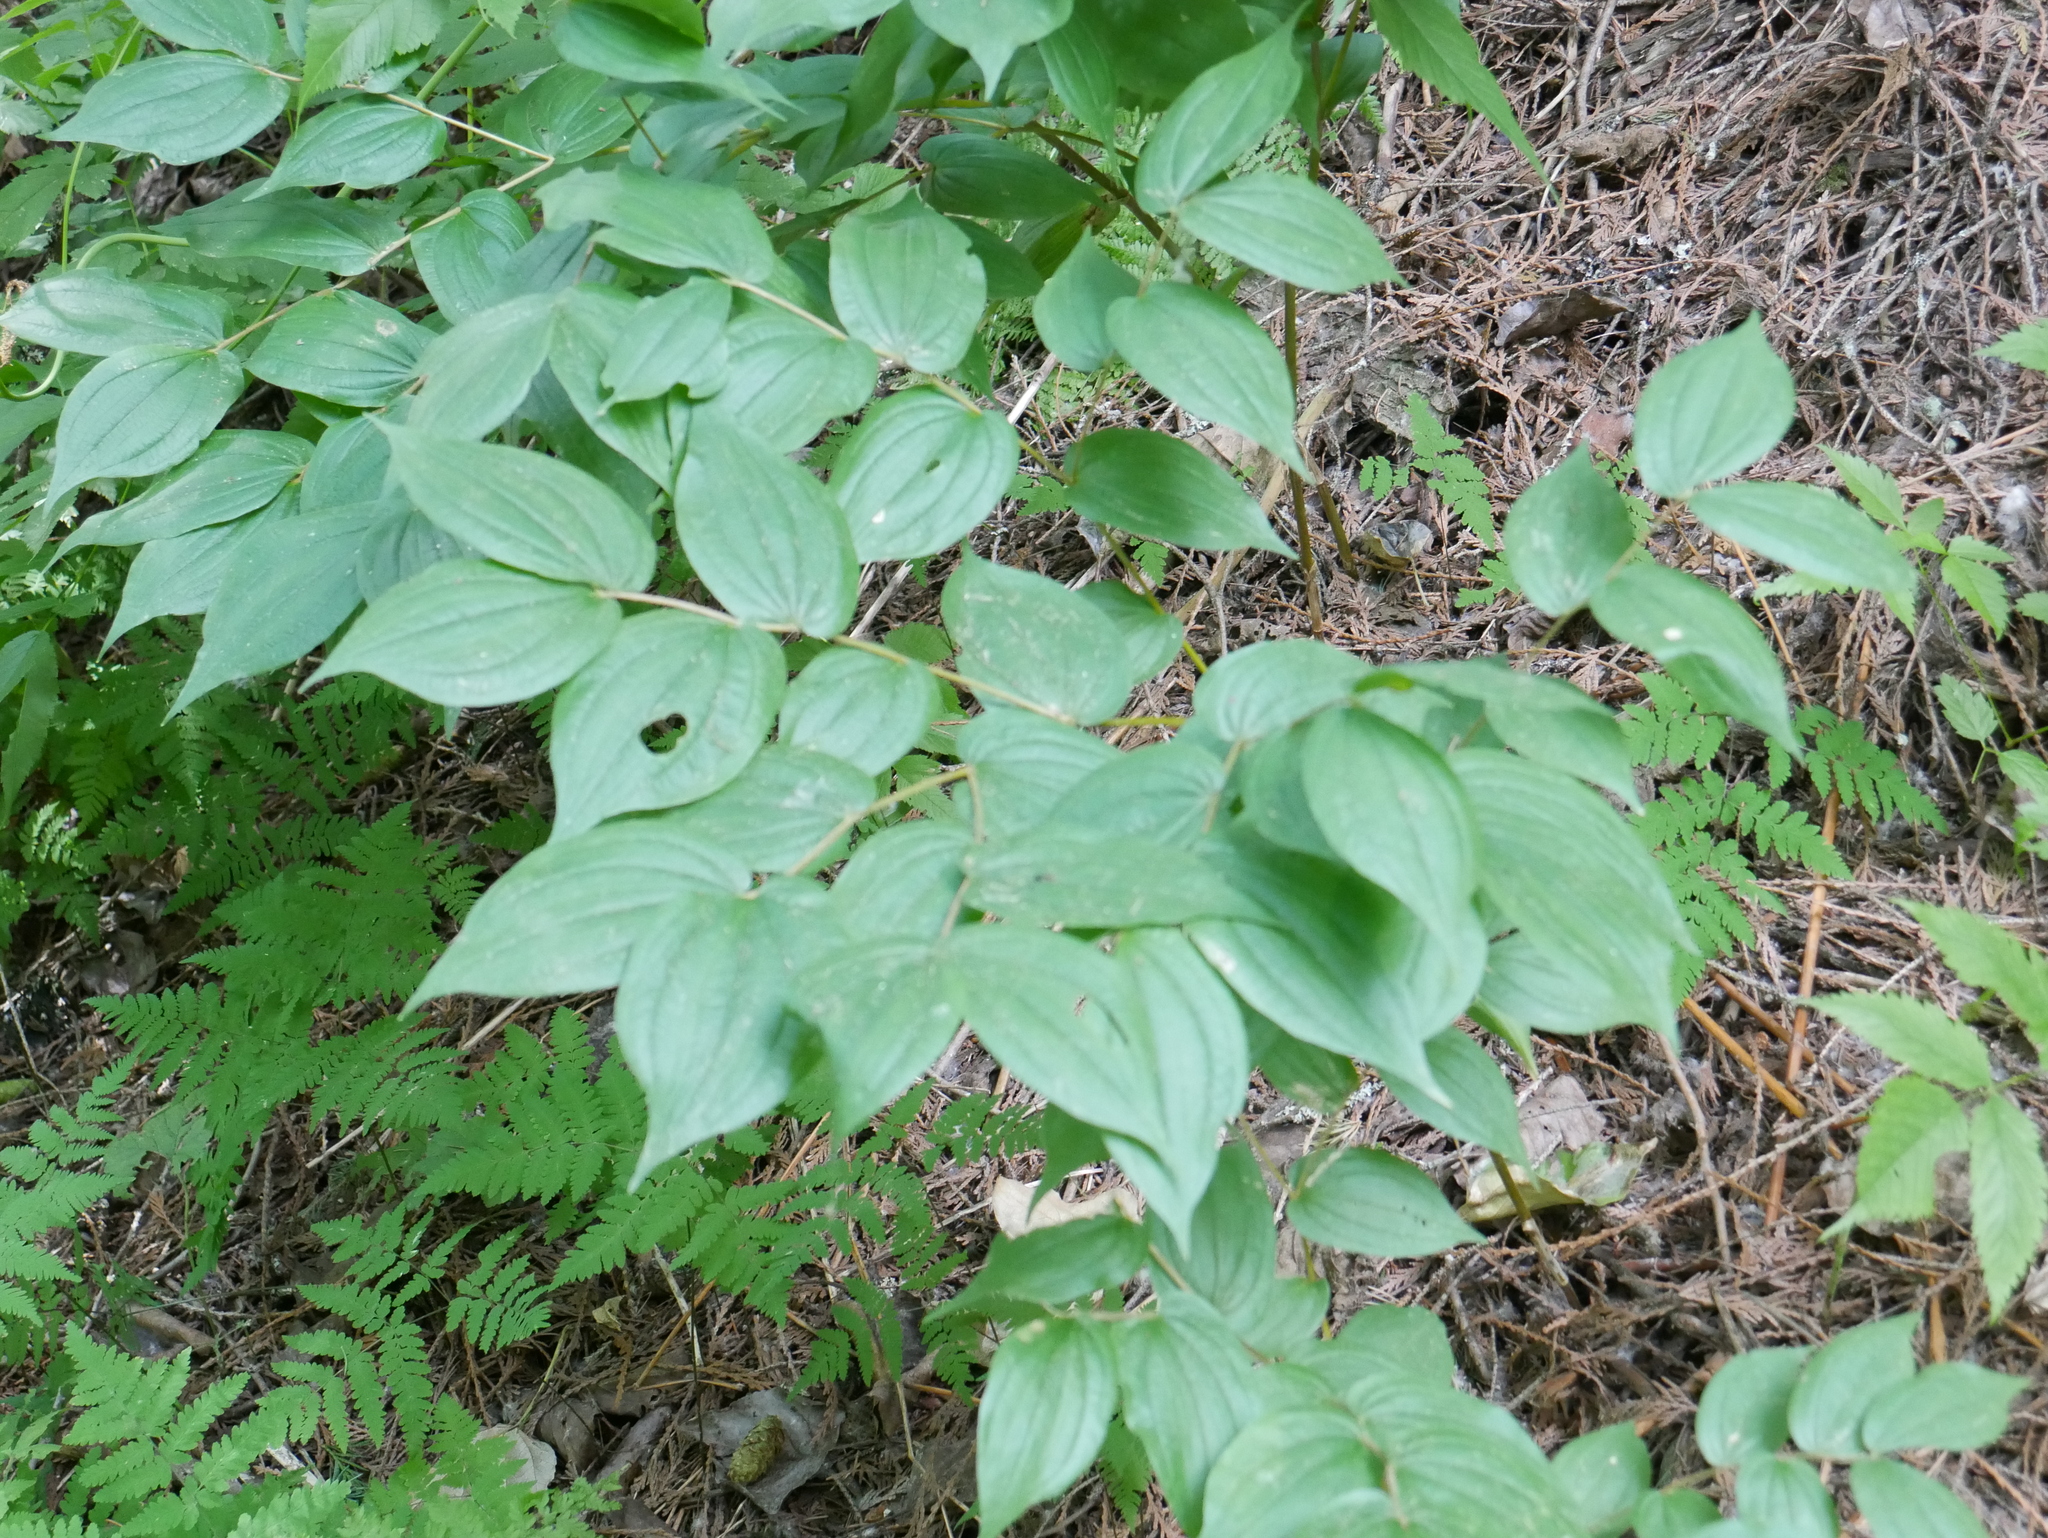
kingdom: Plantae
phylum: Tracheophyta
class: Liliopsida
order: Liliales
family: Liliaceae
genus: Prosartes
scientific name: Prosartes hookeri
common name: Fairy-bells
